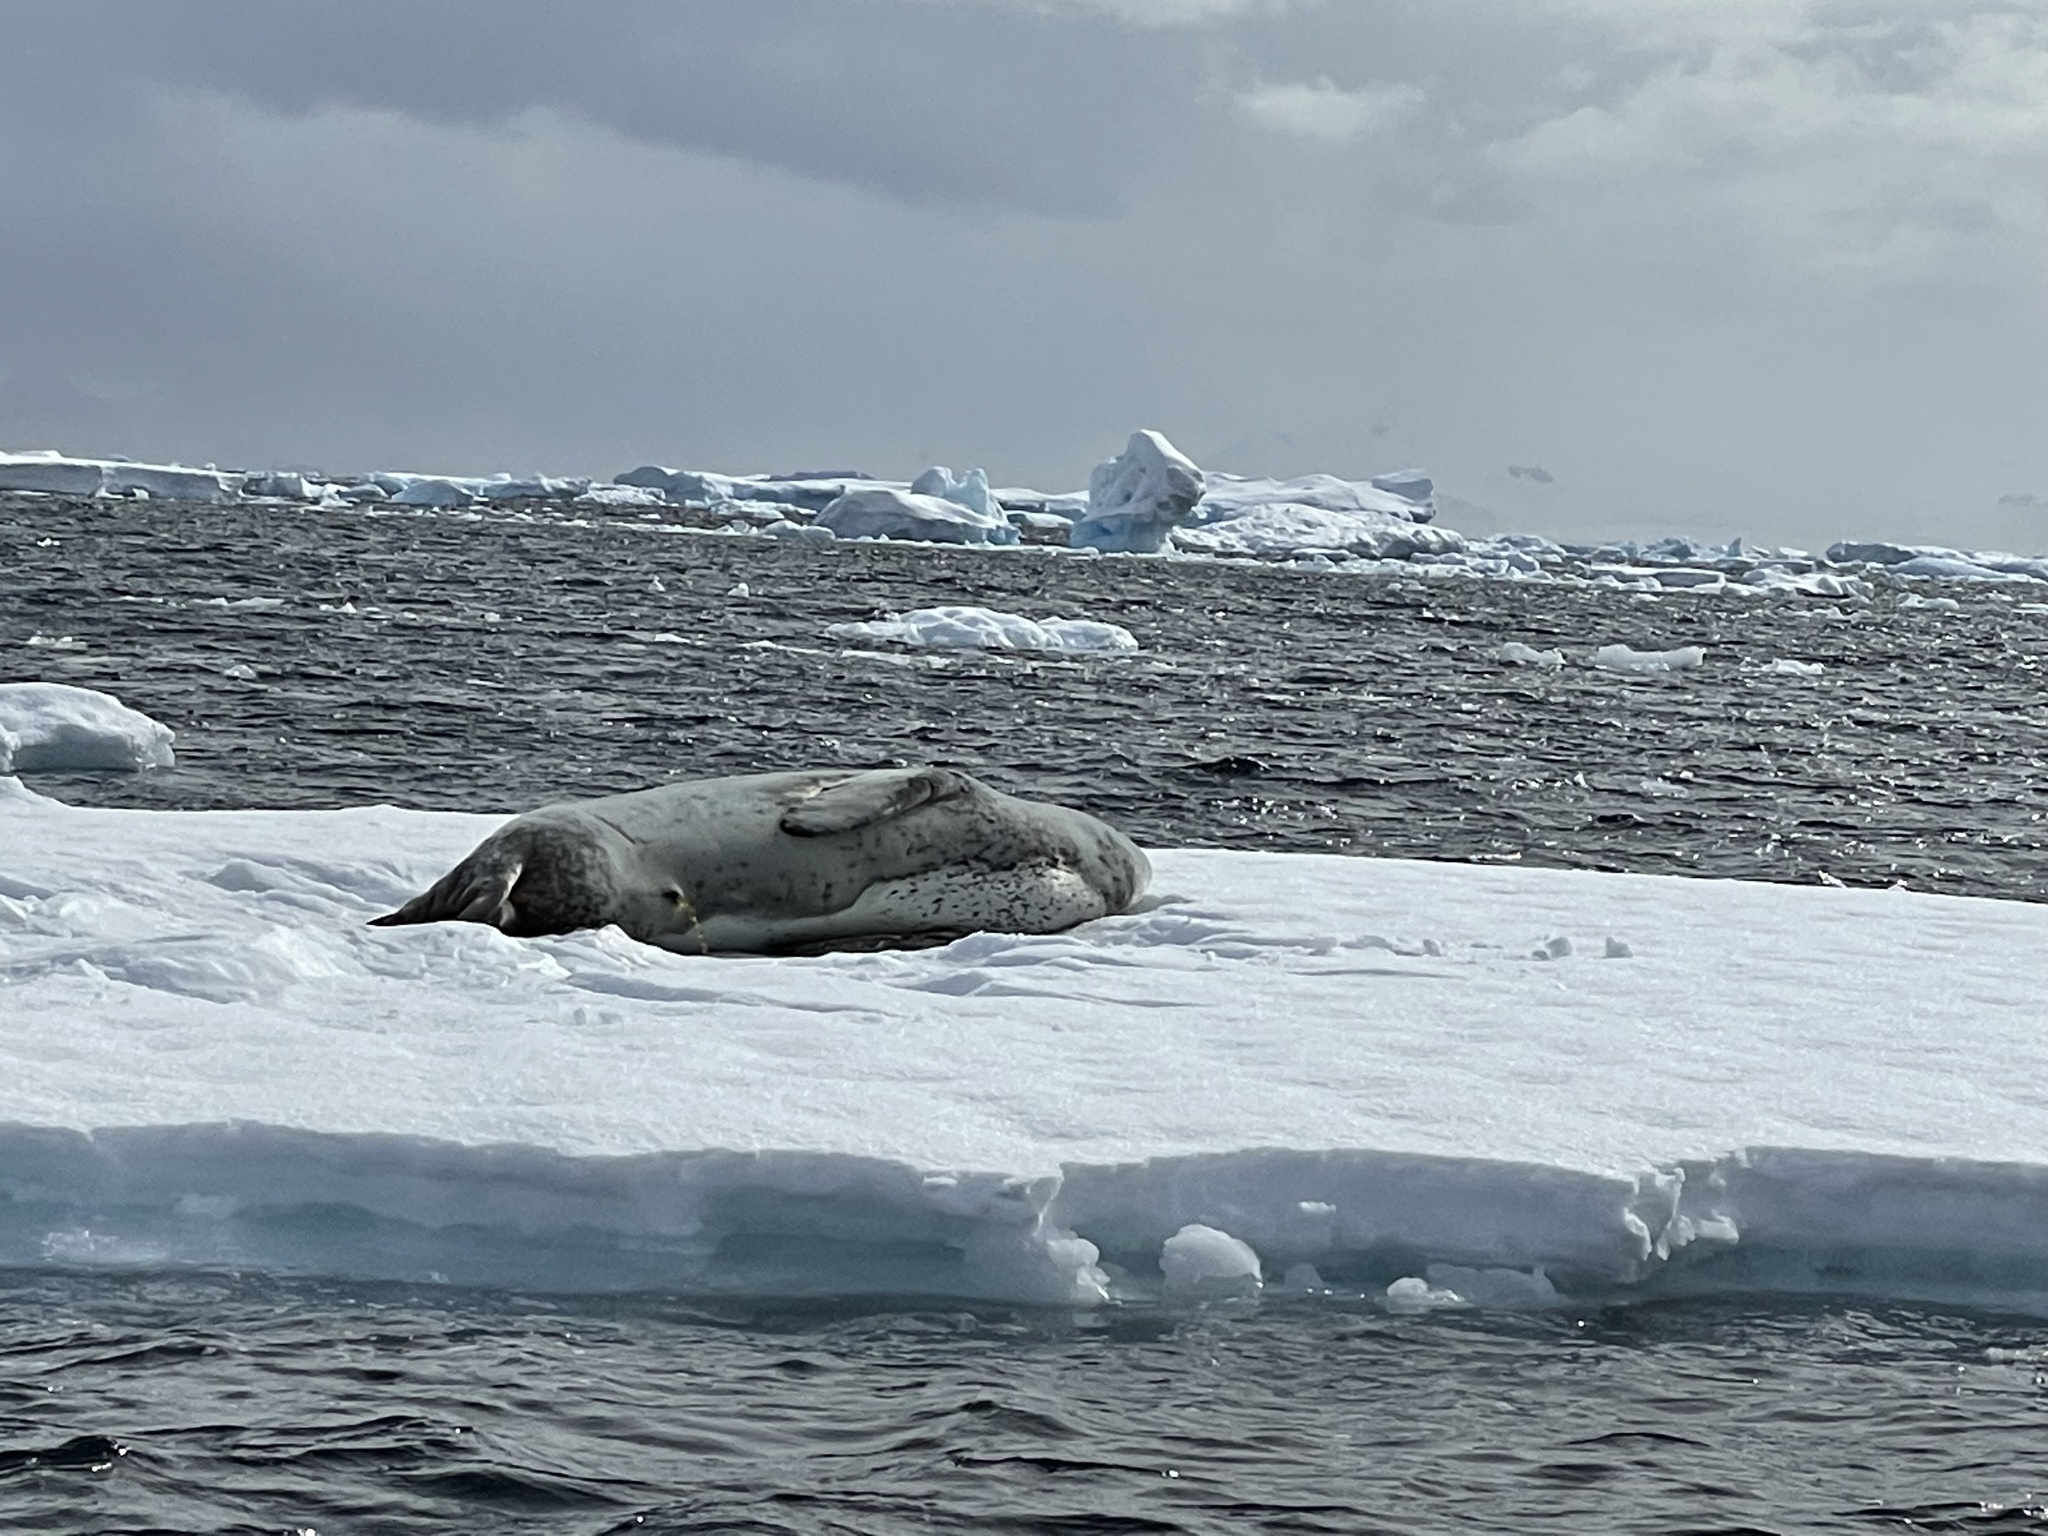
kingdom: Animalia
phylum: Chordata
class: Mammalia
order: Carnivora
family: Phocidae
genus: Hydrurga
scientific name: Hydrurga leptonyx
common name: Leopard seal
